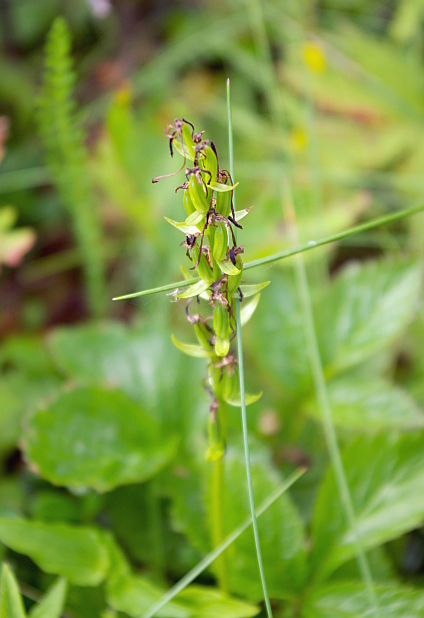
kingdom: Plantae
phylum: Tracheophyta
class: Liliopsida
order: Asparagales
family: Orchidaceae
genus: Platanthera
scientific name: Platanthera bifolia
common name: Lesser butterfly-orchid
